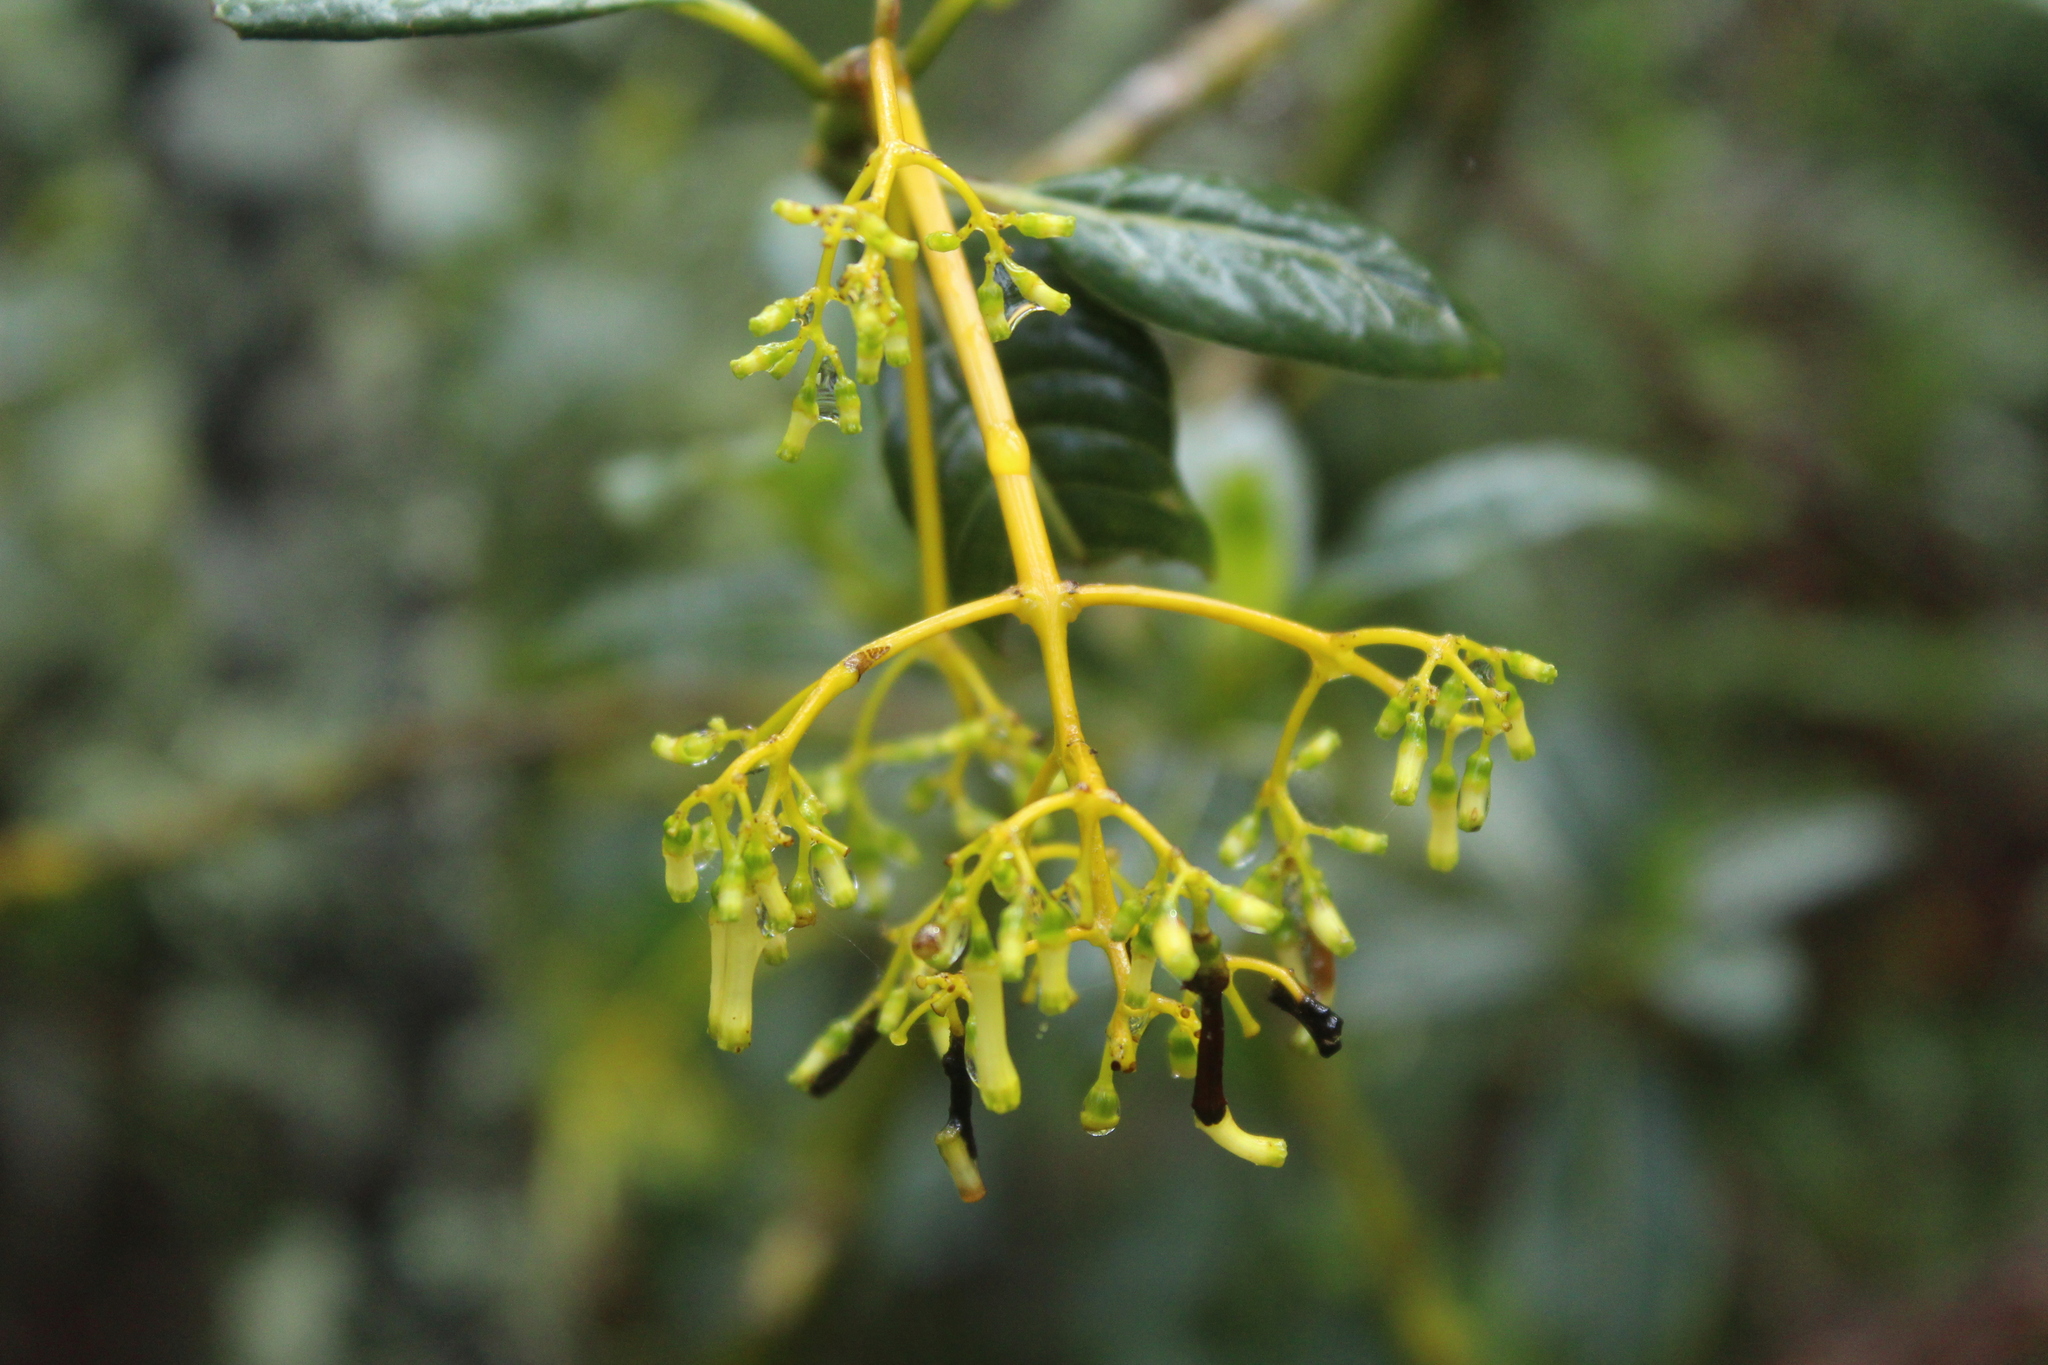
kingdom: Plantae
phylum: Tracheophyta
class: Magnoliopsida
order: Gentianales
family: Rubiaceae
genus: Palicourea
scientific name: Palicourea lineariflora
